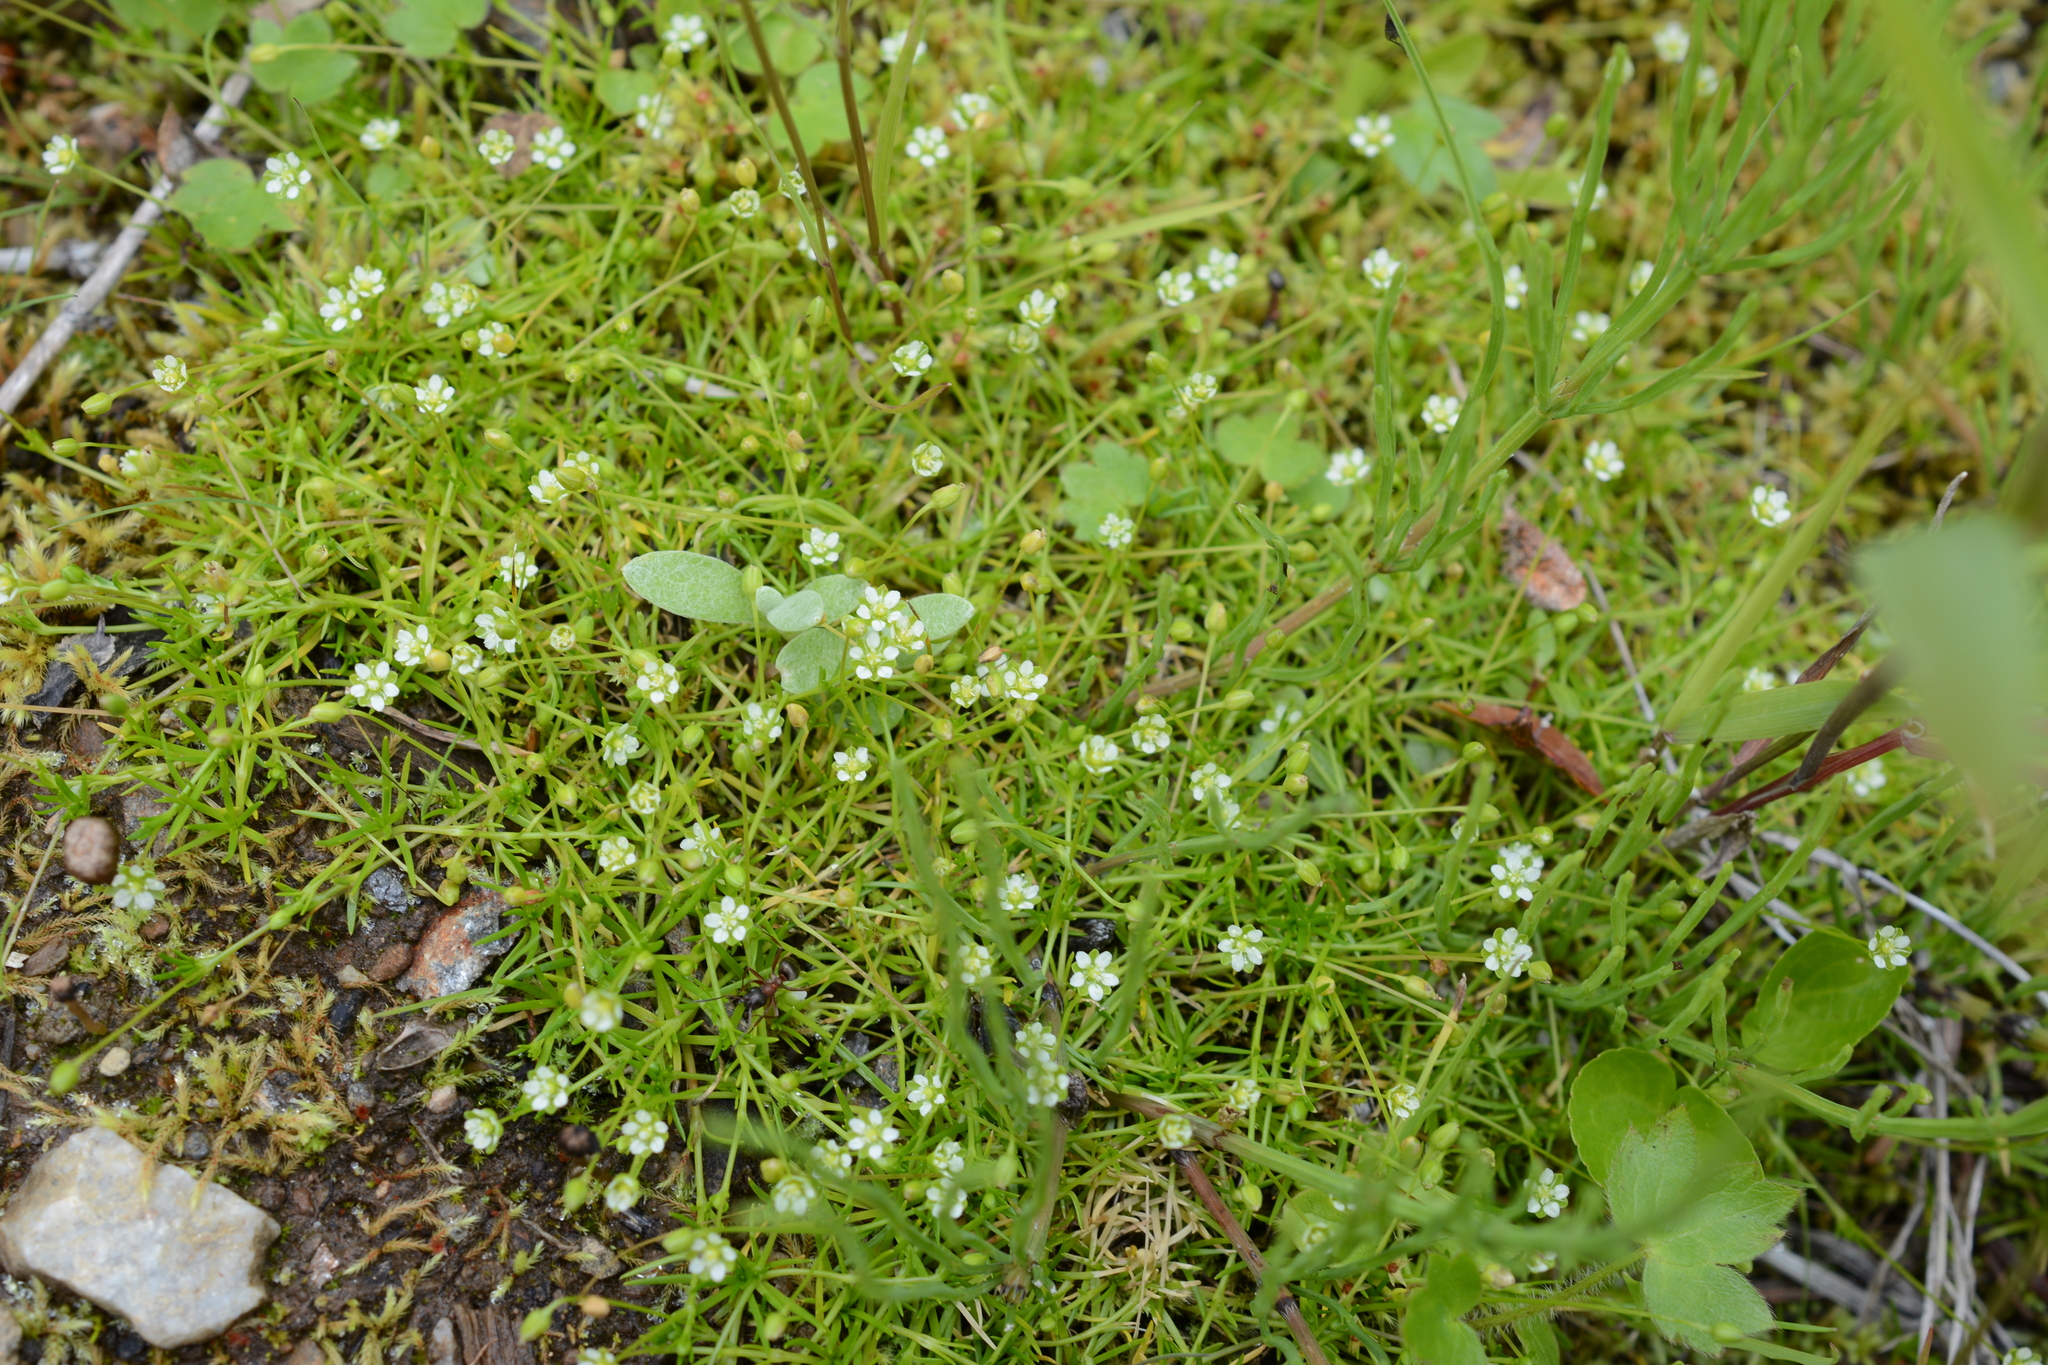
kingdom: Plantae
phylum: Tracheophyta
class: Magnoliopsida
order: Caryophyllales
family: Caryophyllaceae
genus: Sagina
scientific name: Sagina saginoides
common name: Alpine pearlwort
